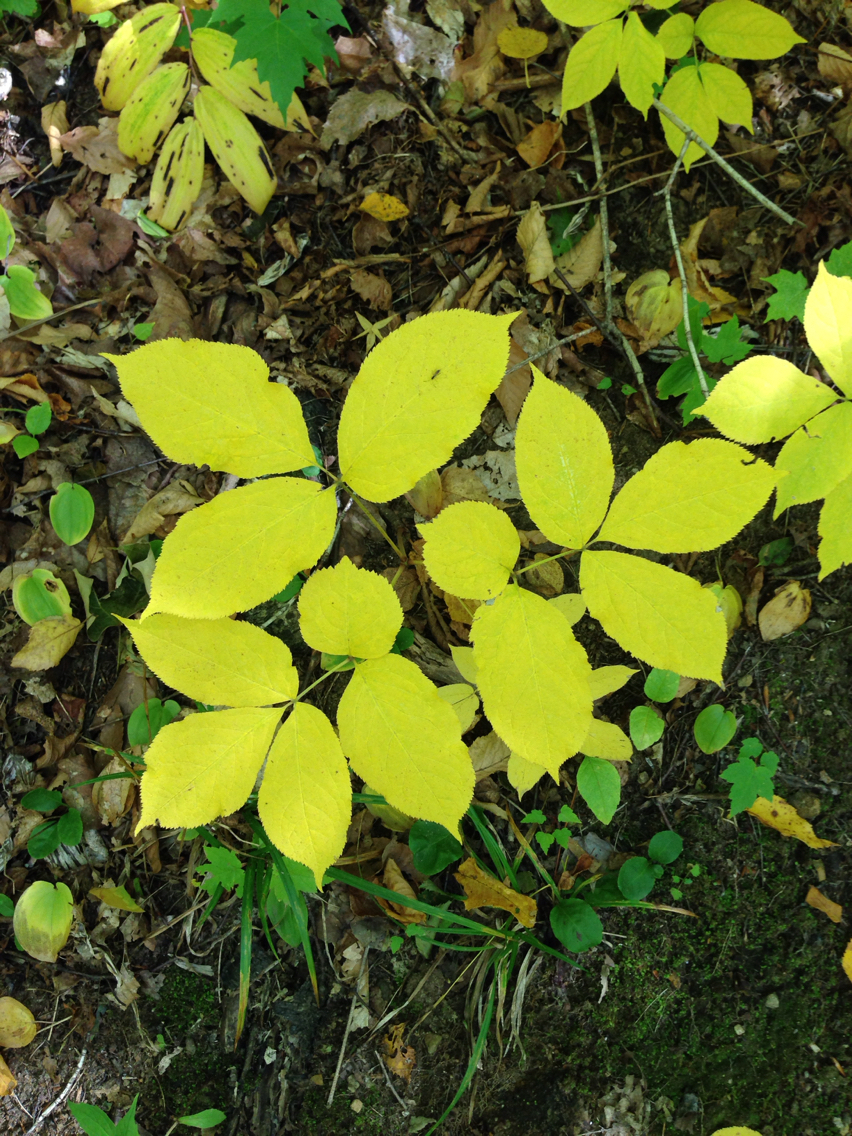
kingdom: Plantae
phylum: Tracheophyta
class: Magnoliopsida
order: Apiales
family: Araliaceae
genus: Aralia
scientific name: Aralia nudicaulis
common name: Wild sarsaparilla
